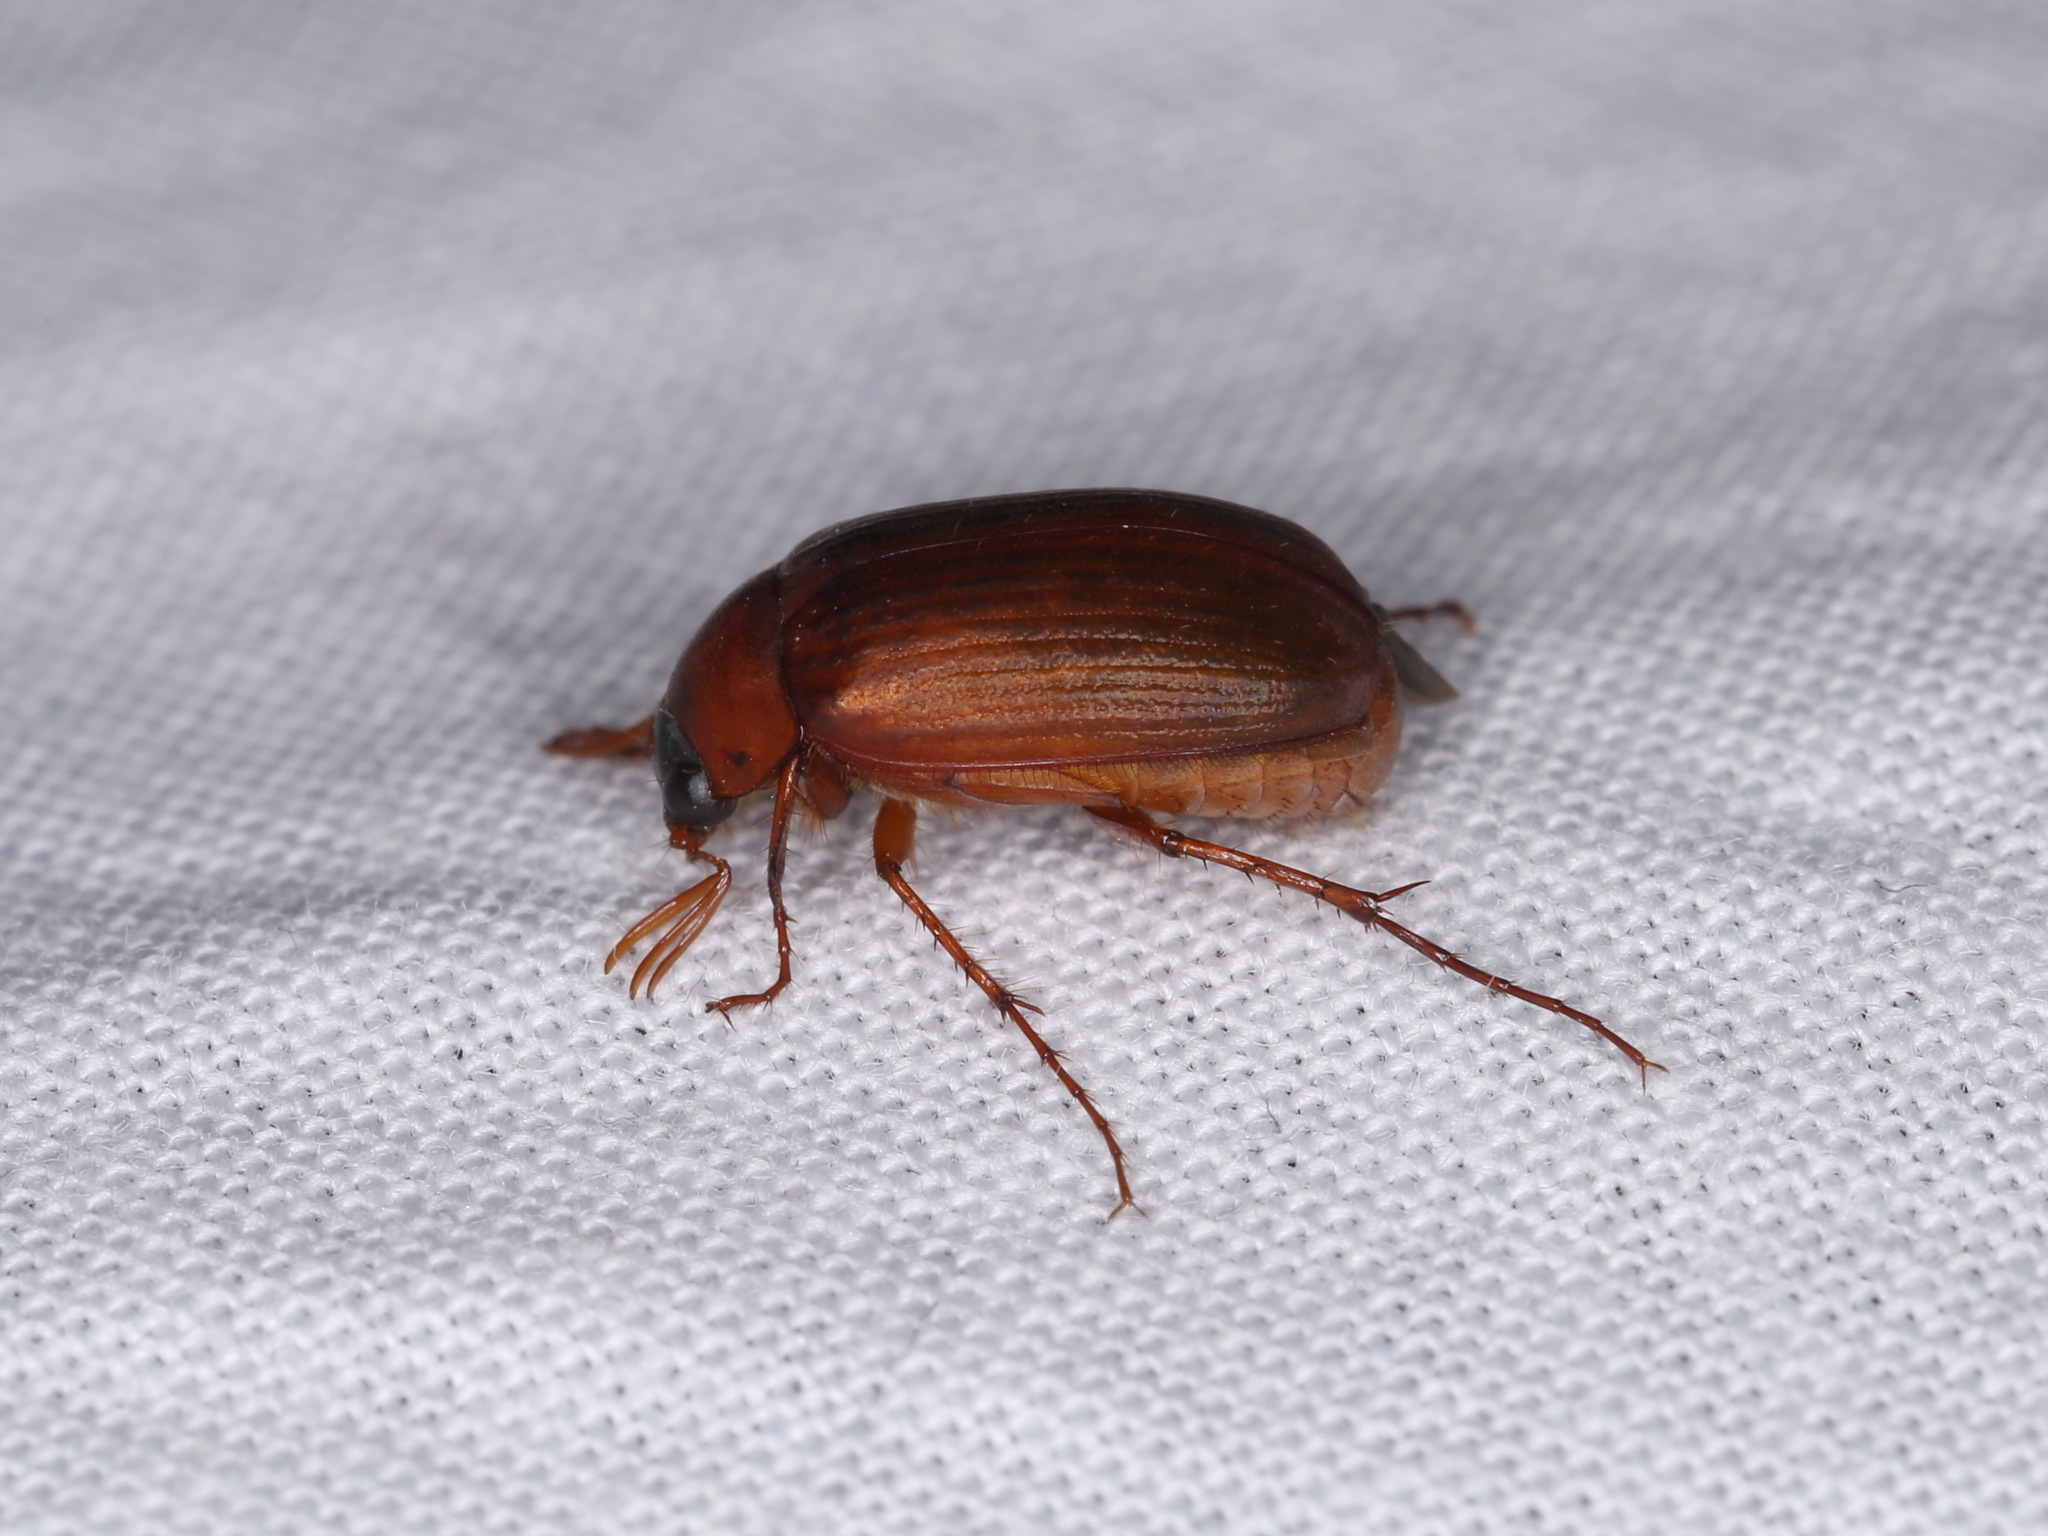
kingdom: Animalia
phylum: Arthropoda
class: Insecta
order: Coleoptera
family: Scarabaeidae
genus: Serica
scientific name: Serica brunnea
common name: Brown chafer
